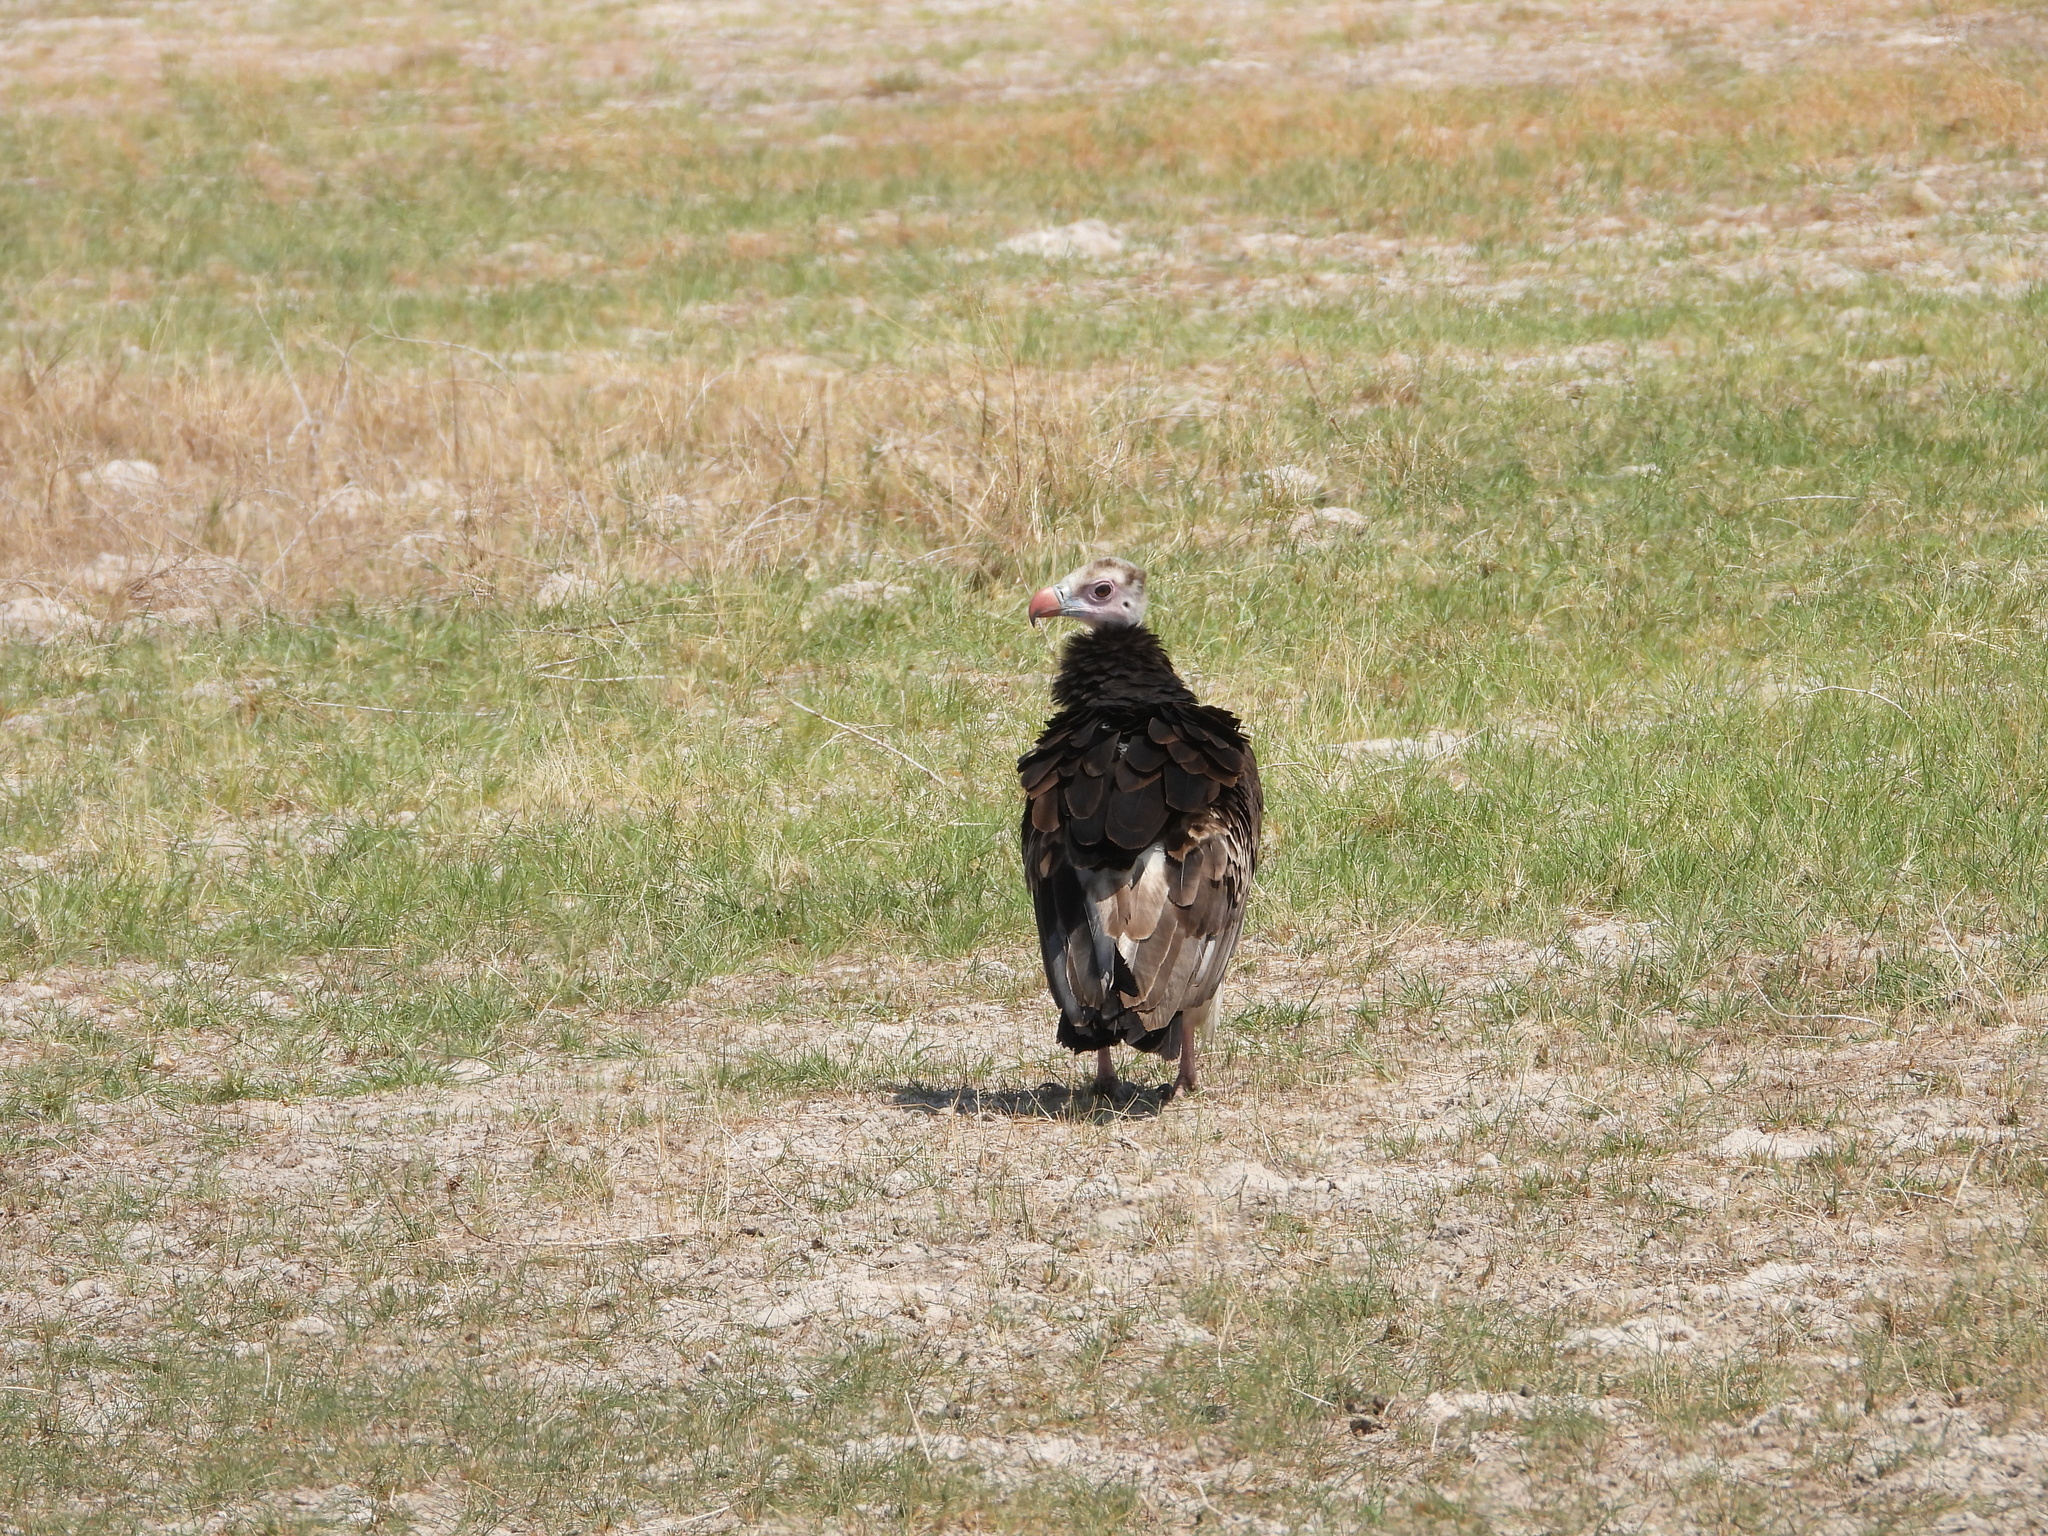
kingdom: Animalia
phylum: Chordata
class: Aves
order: Accipitriformes
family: Accipitridae
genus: Trigonoceps
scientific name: Trigonoceps occipitalis
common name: White-headed vulture
